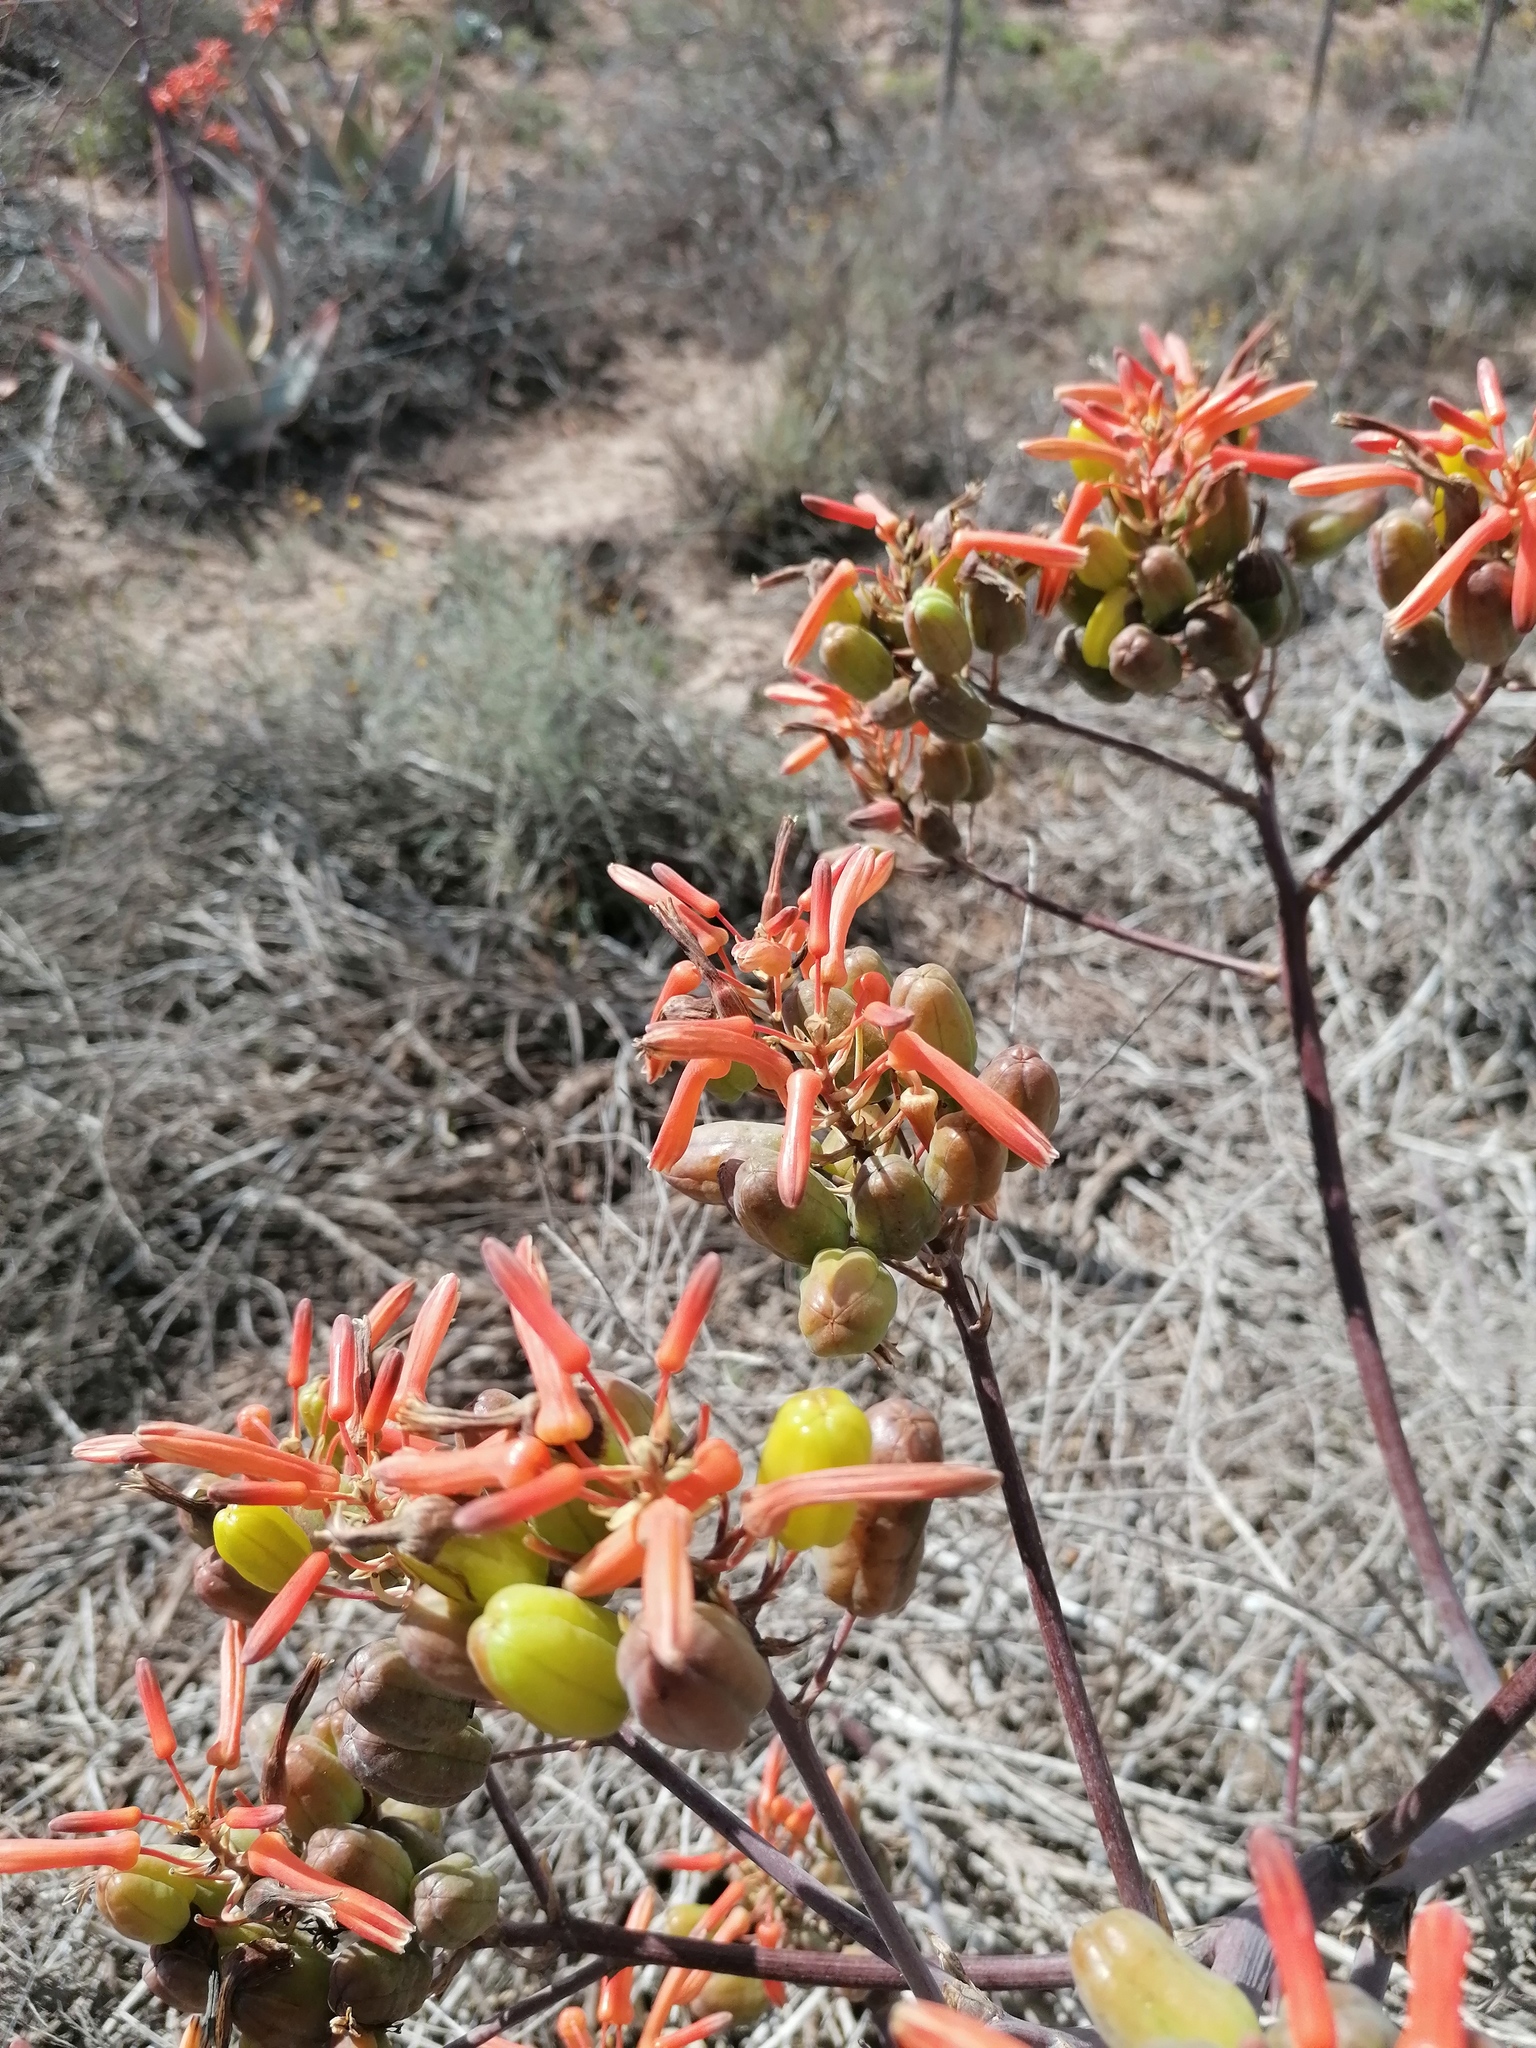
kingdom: Plantae
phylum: Tracheophyta
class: Liliopsida
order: Asparagales
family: Asphodelaceae
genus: Aloe
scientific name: Aloe striata
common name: Coral aloe
